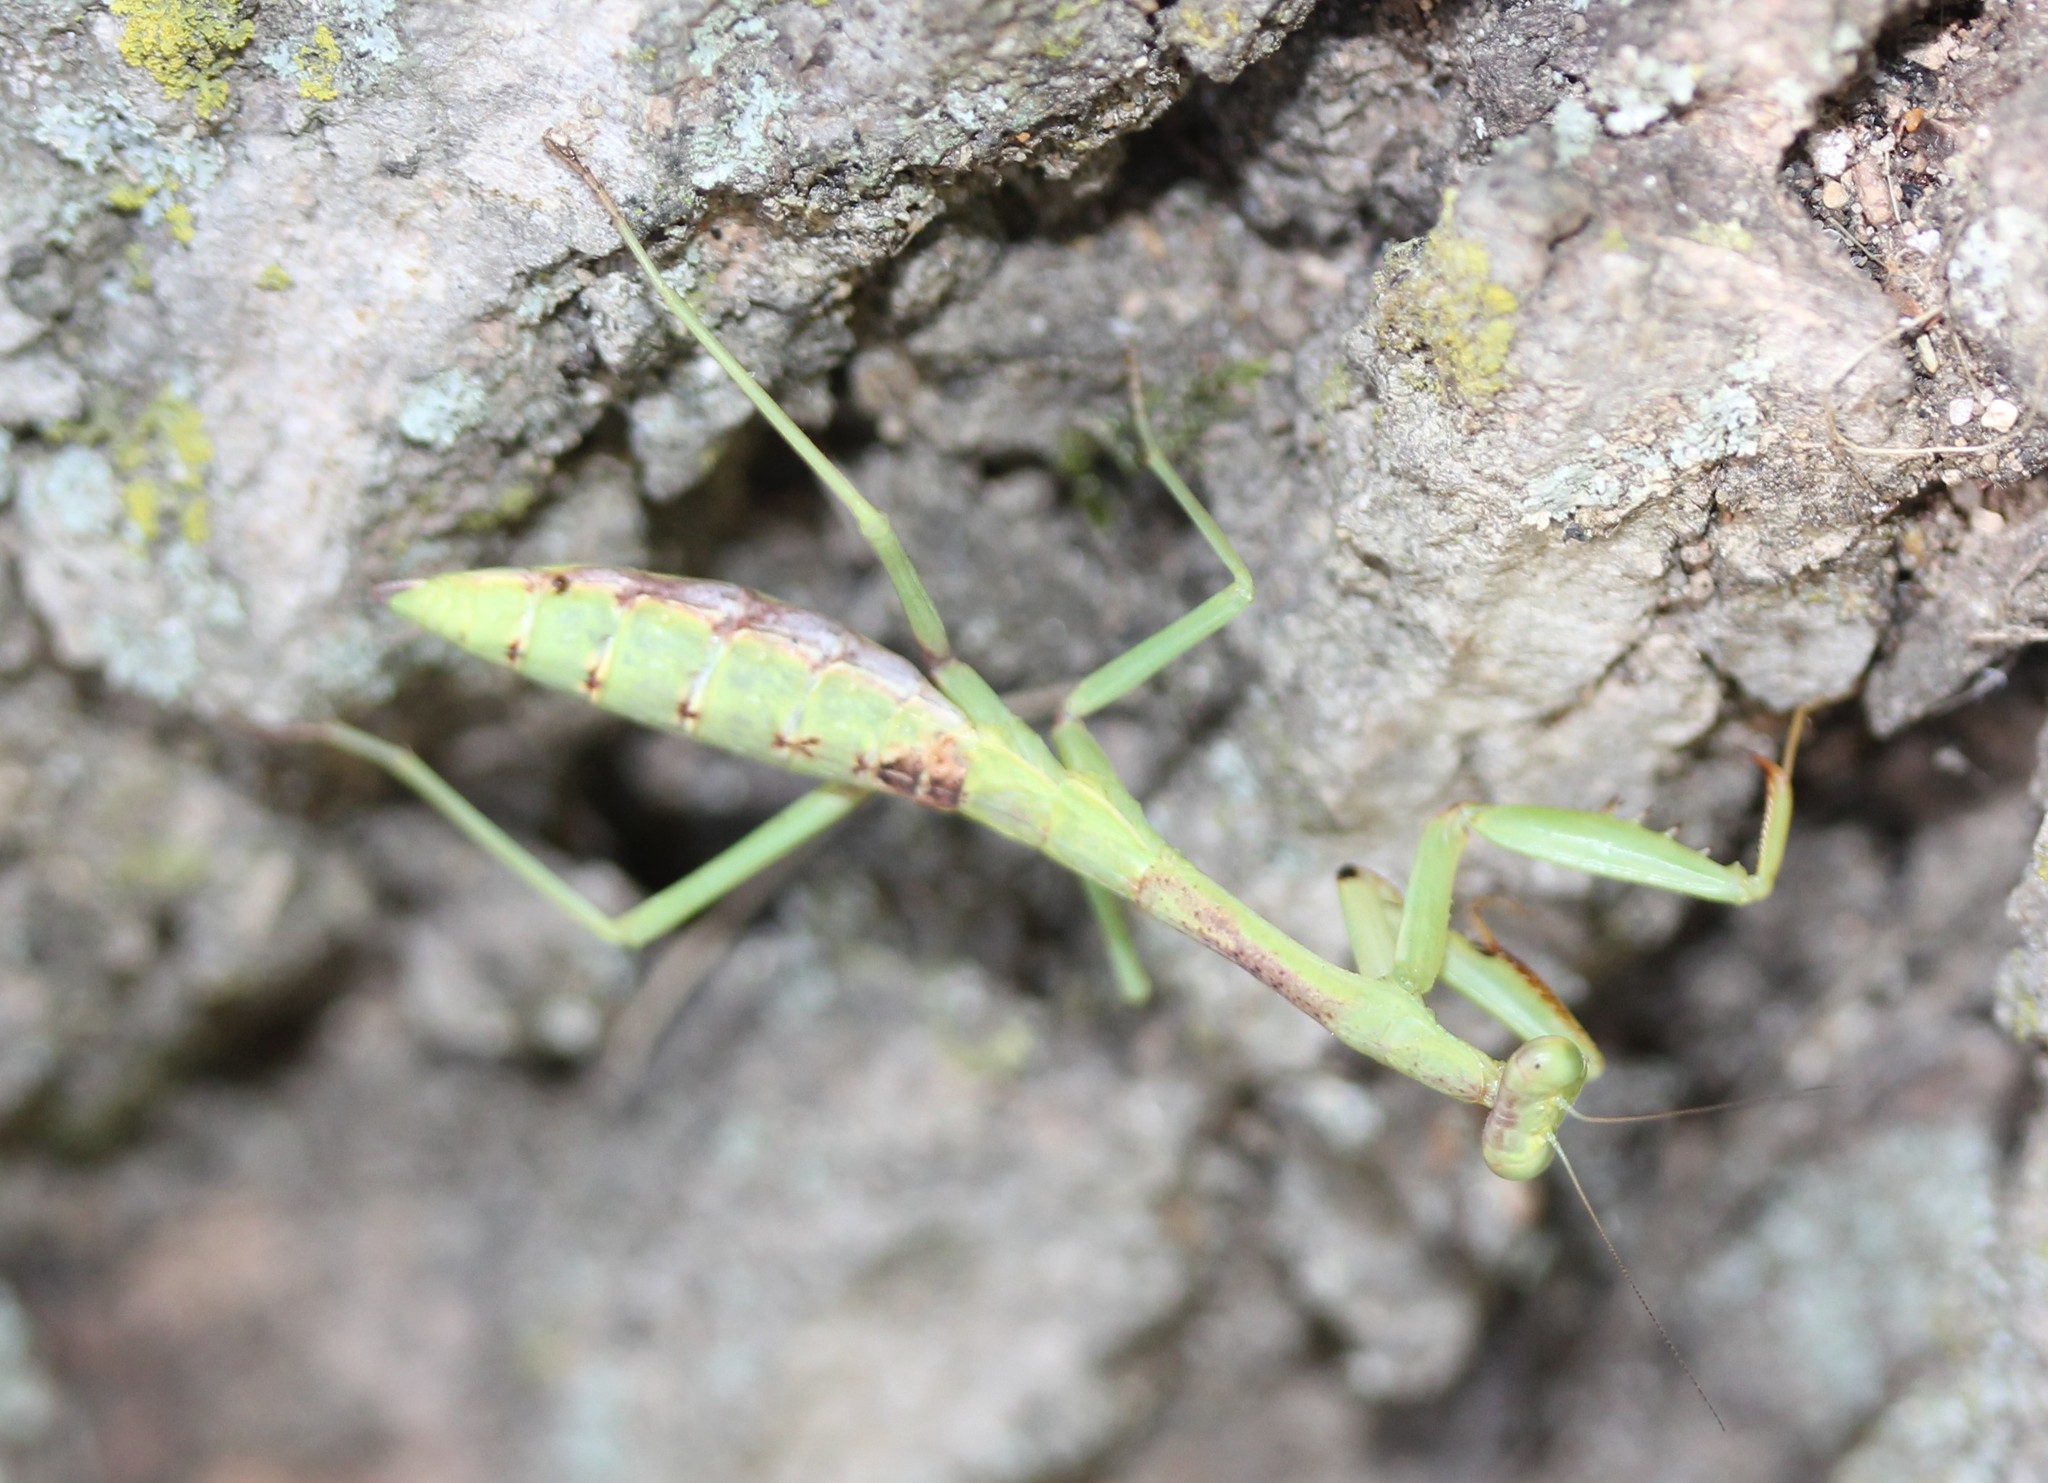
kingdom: Animalia
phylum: Arthropoda
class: Insecta
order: Mantodea
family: Mantidae
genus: Stagmomantis
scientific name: Stagmomantis carolina
